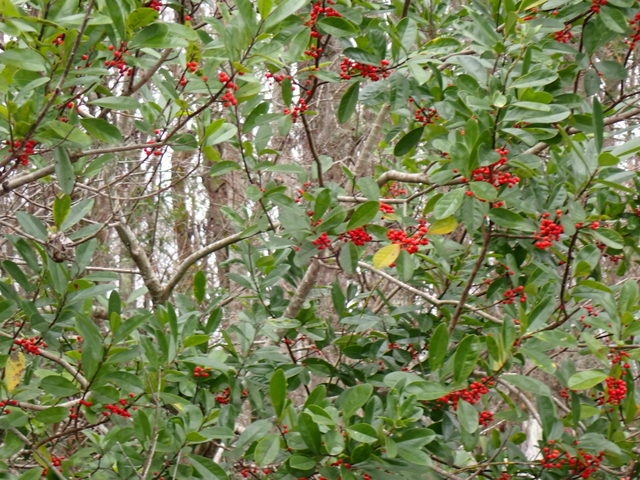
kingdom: Plantae
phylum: Tracheophyta
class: Magnoliopsida
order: Aquifoliales
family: Aquifoliaceae
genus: Ilex
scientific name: Ilex cassine
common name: Dahoon
